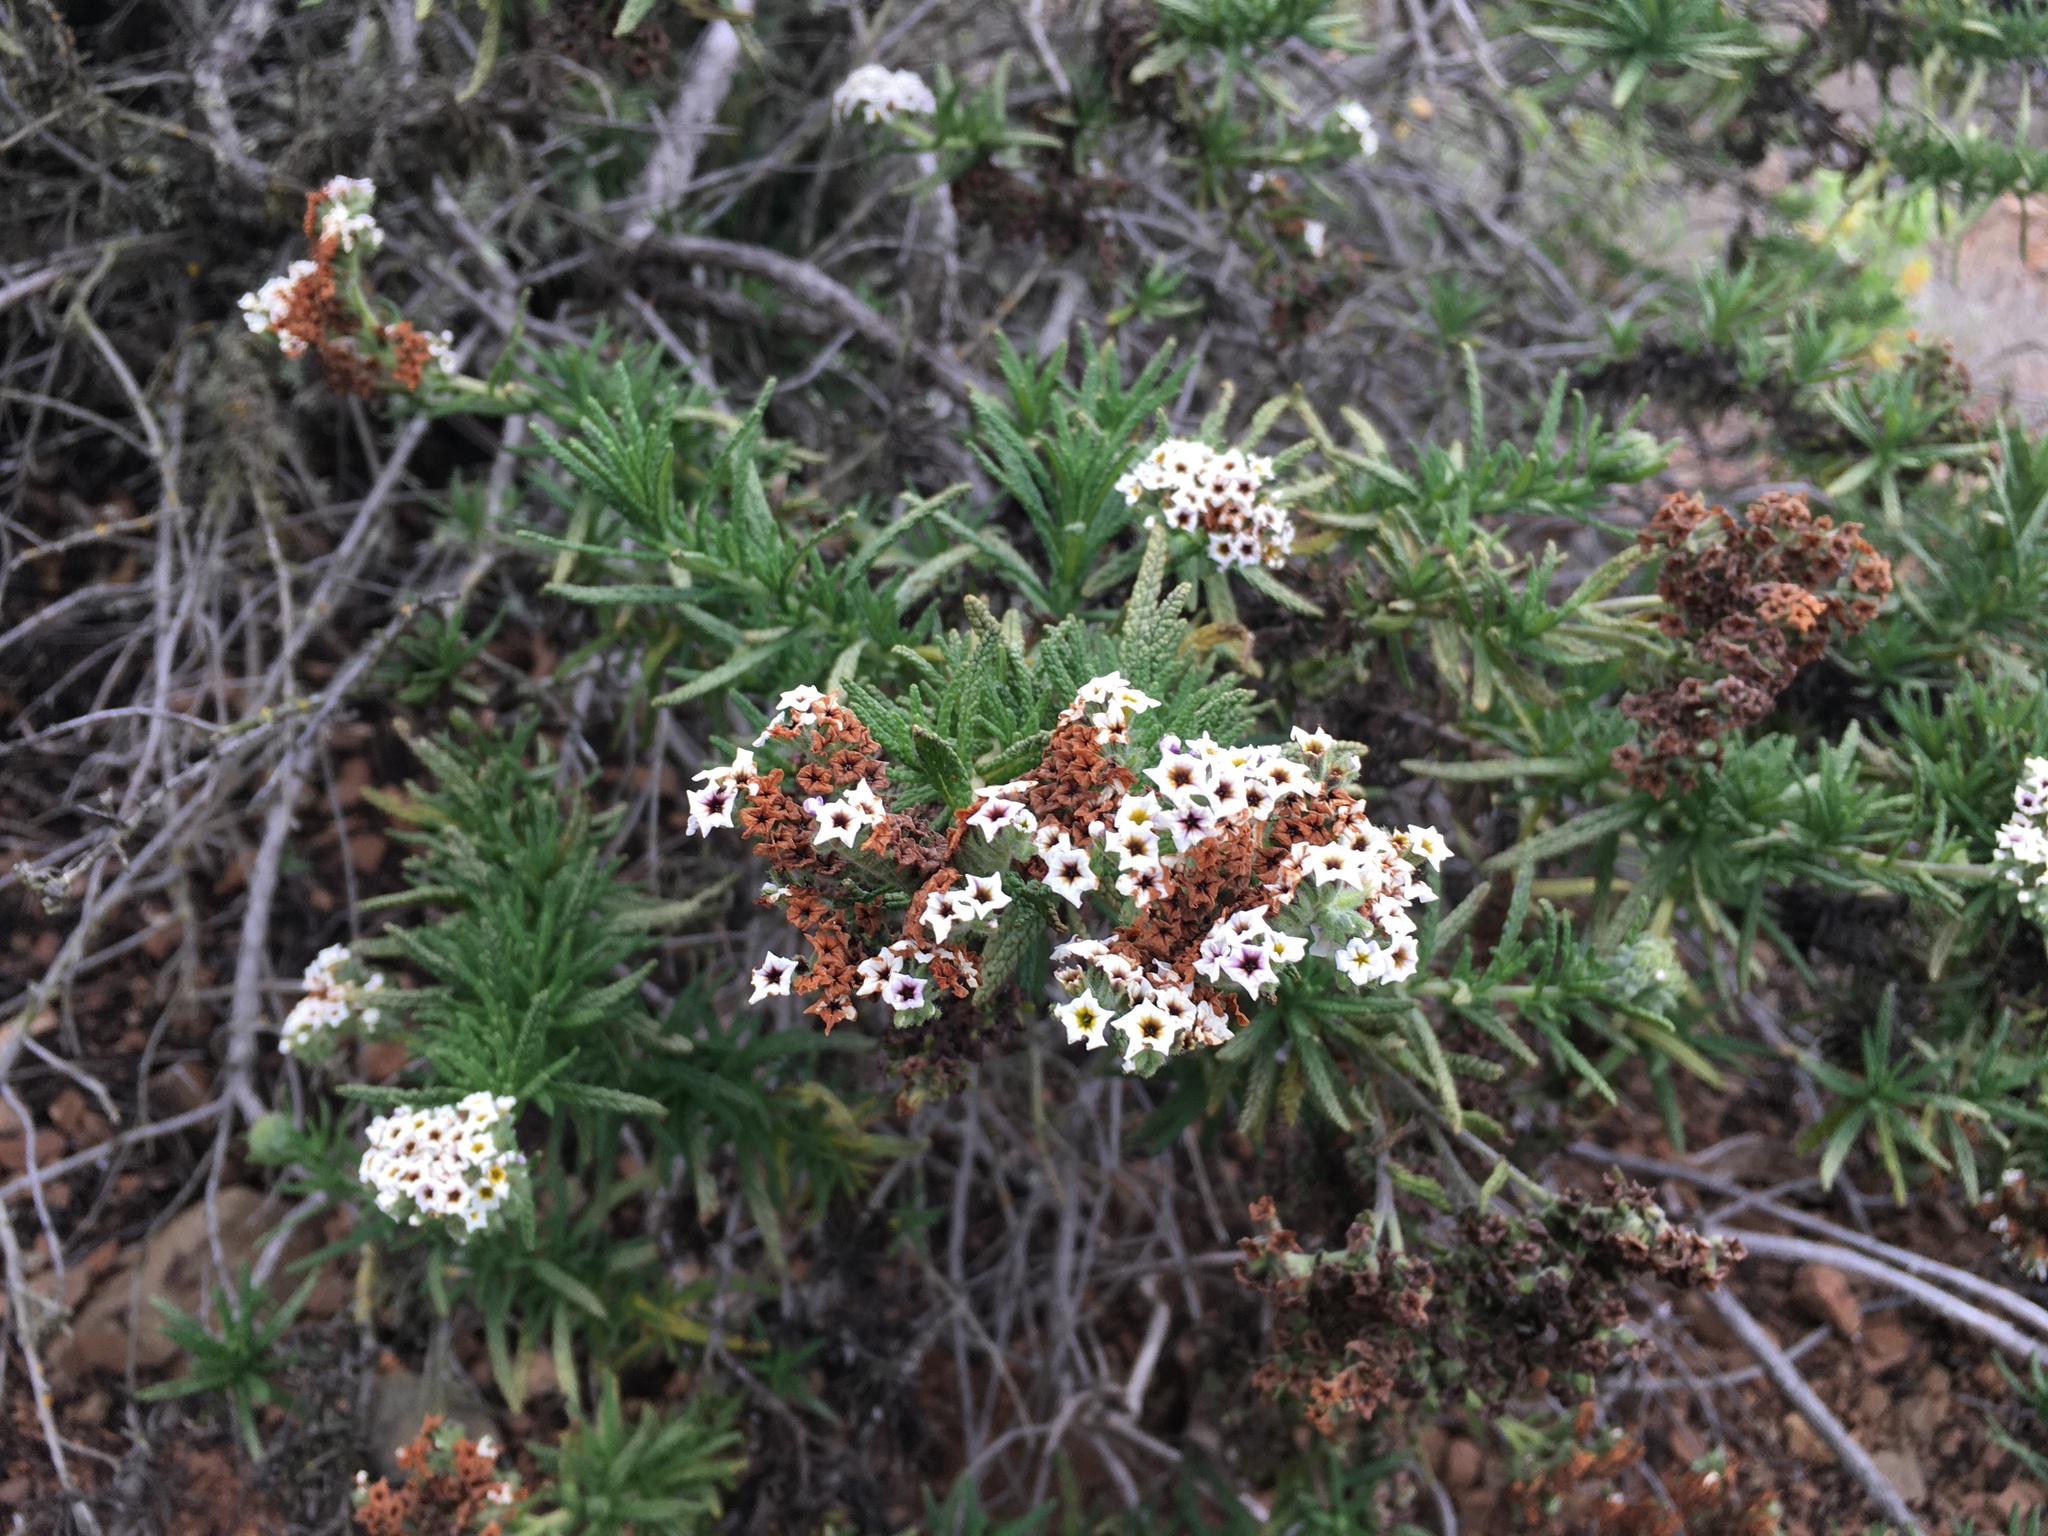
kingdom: Plantae
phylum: Tracheophyta
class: Magnoliopsida
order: Boraginales
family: Heliotropiaceae
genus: Heliotropium
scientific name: Heliotropium taltalense
